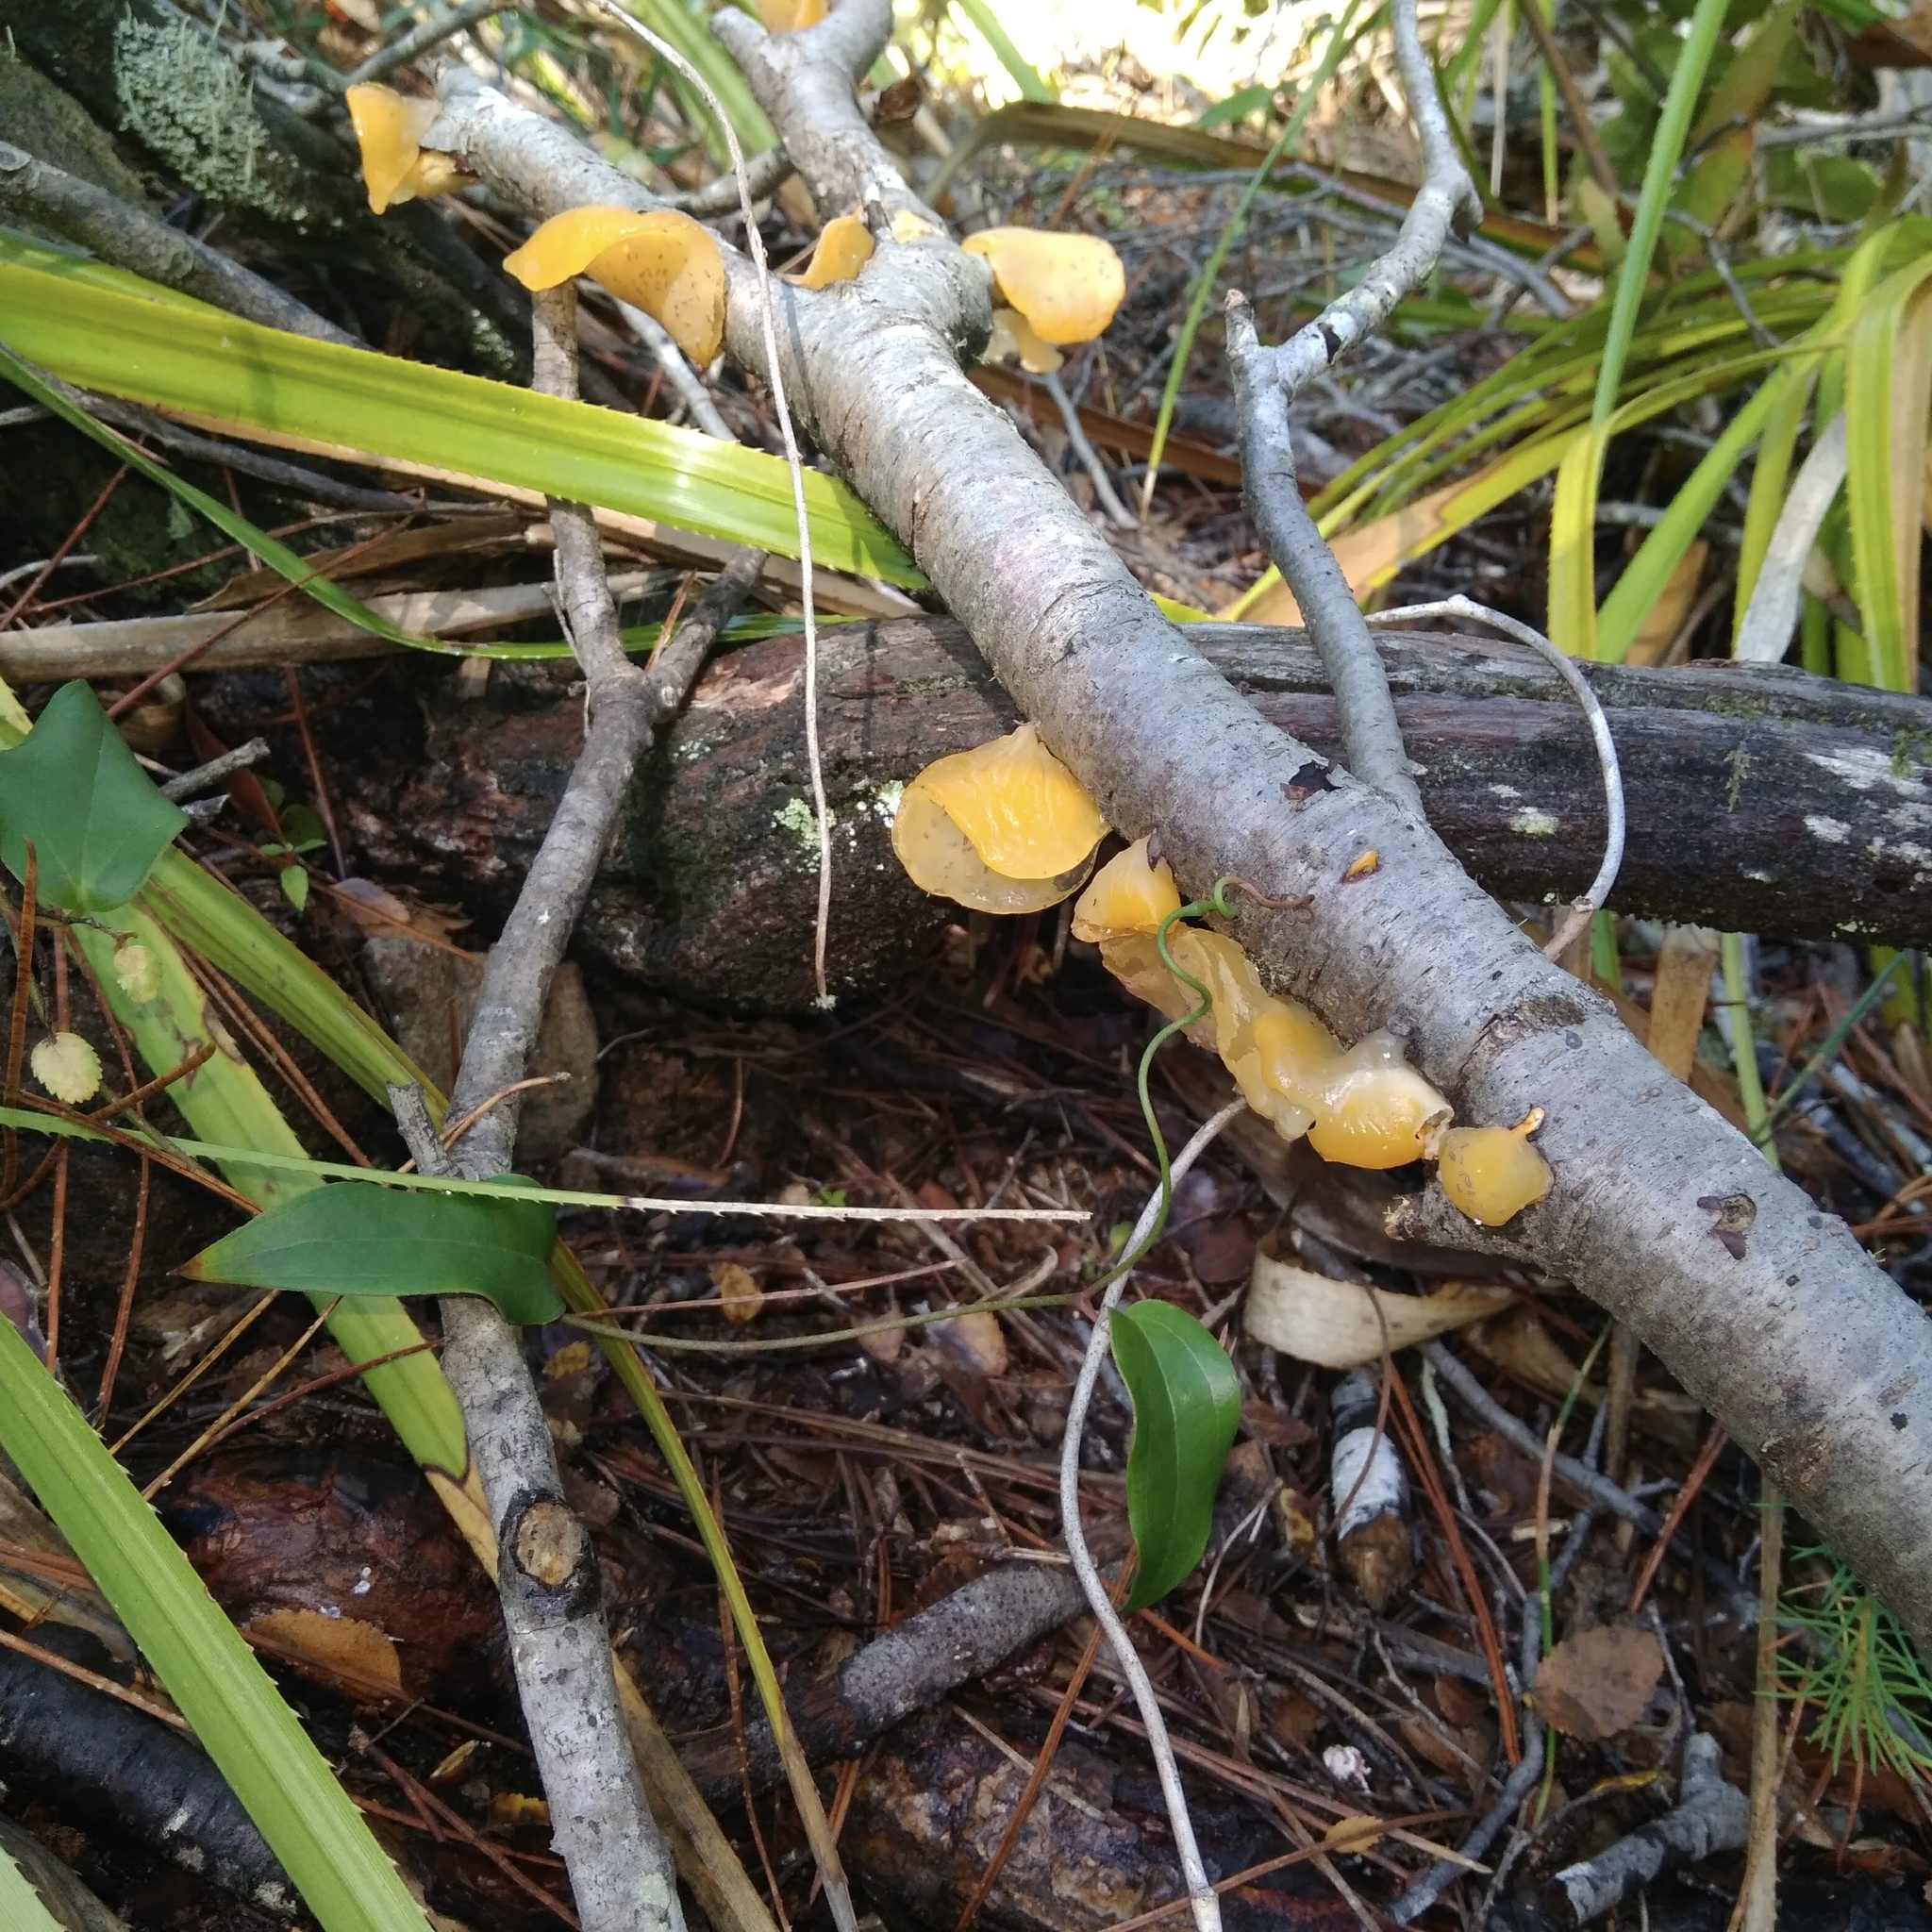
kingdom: Fungi
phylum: Basidiomycota
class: Agaricomycetes
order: Russulales
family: Stereaceae
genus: Aleurodiscus
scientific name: Aleurodiscus vitellinus
